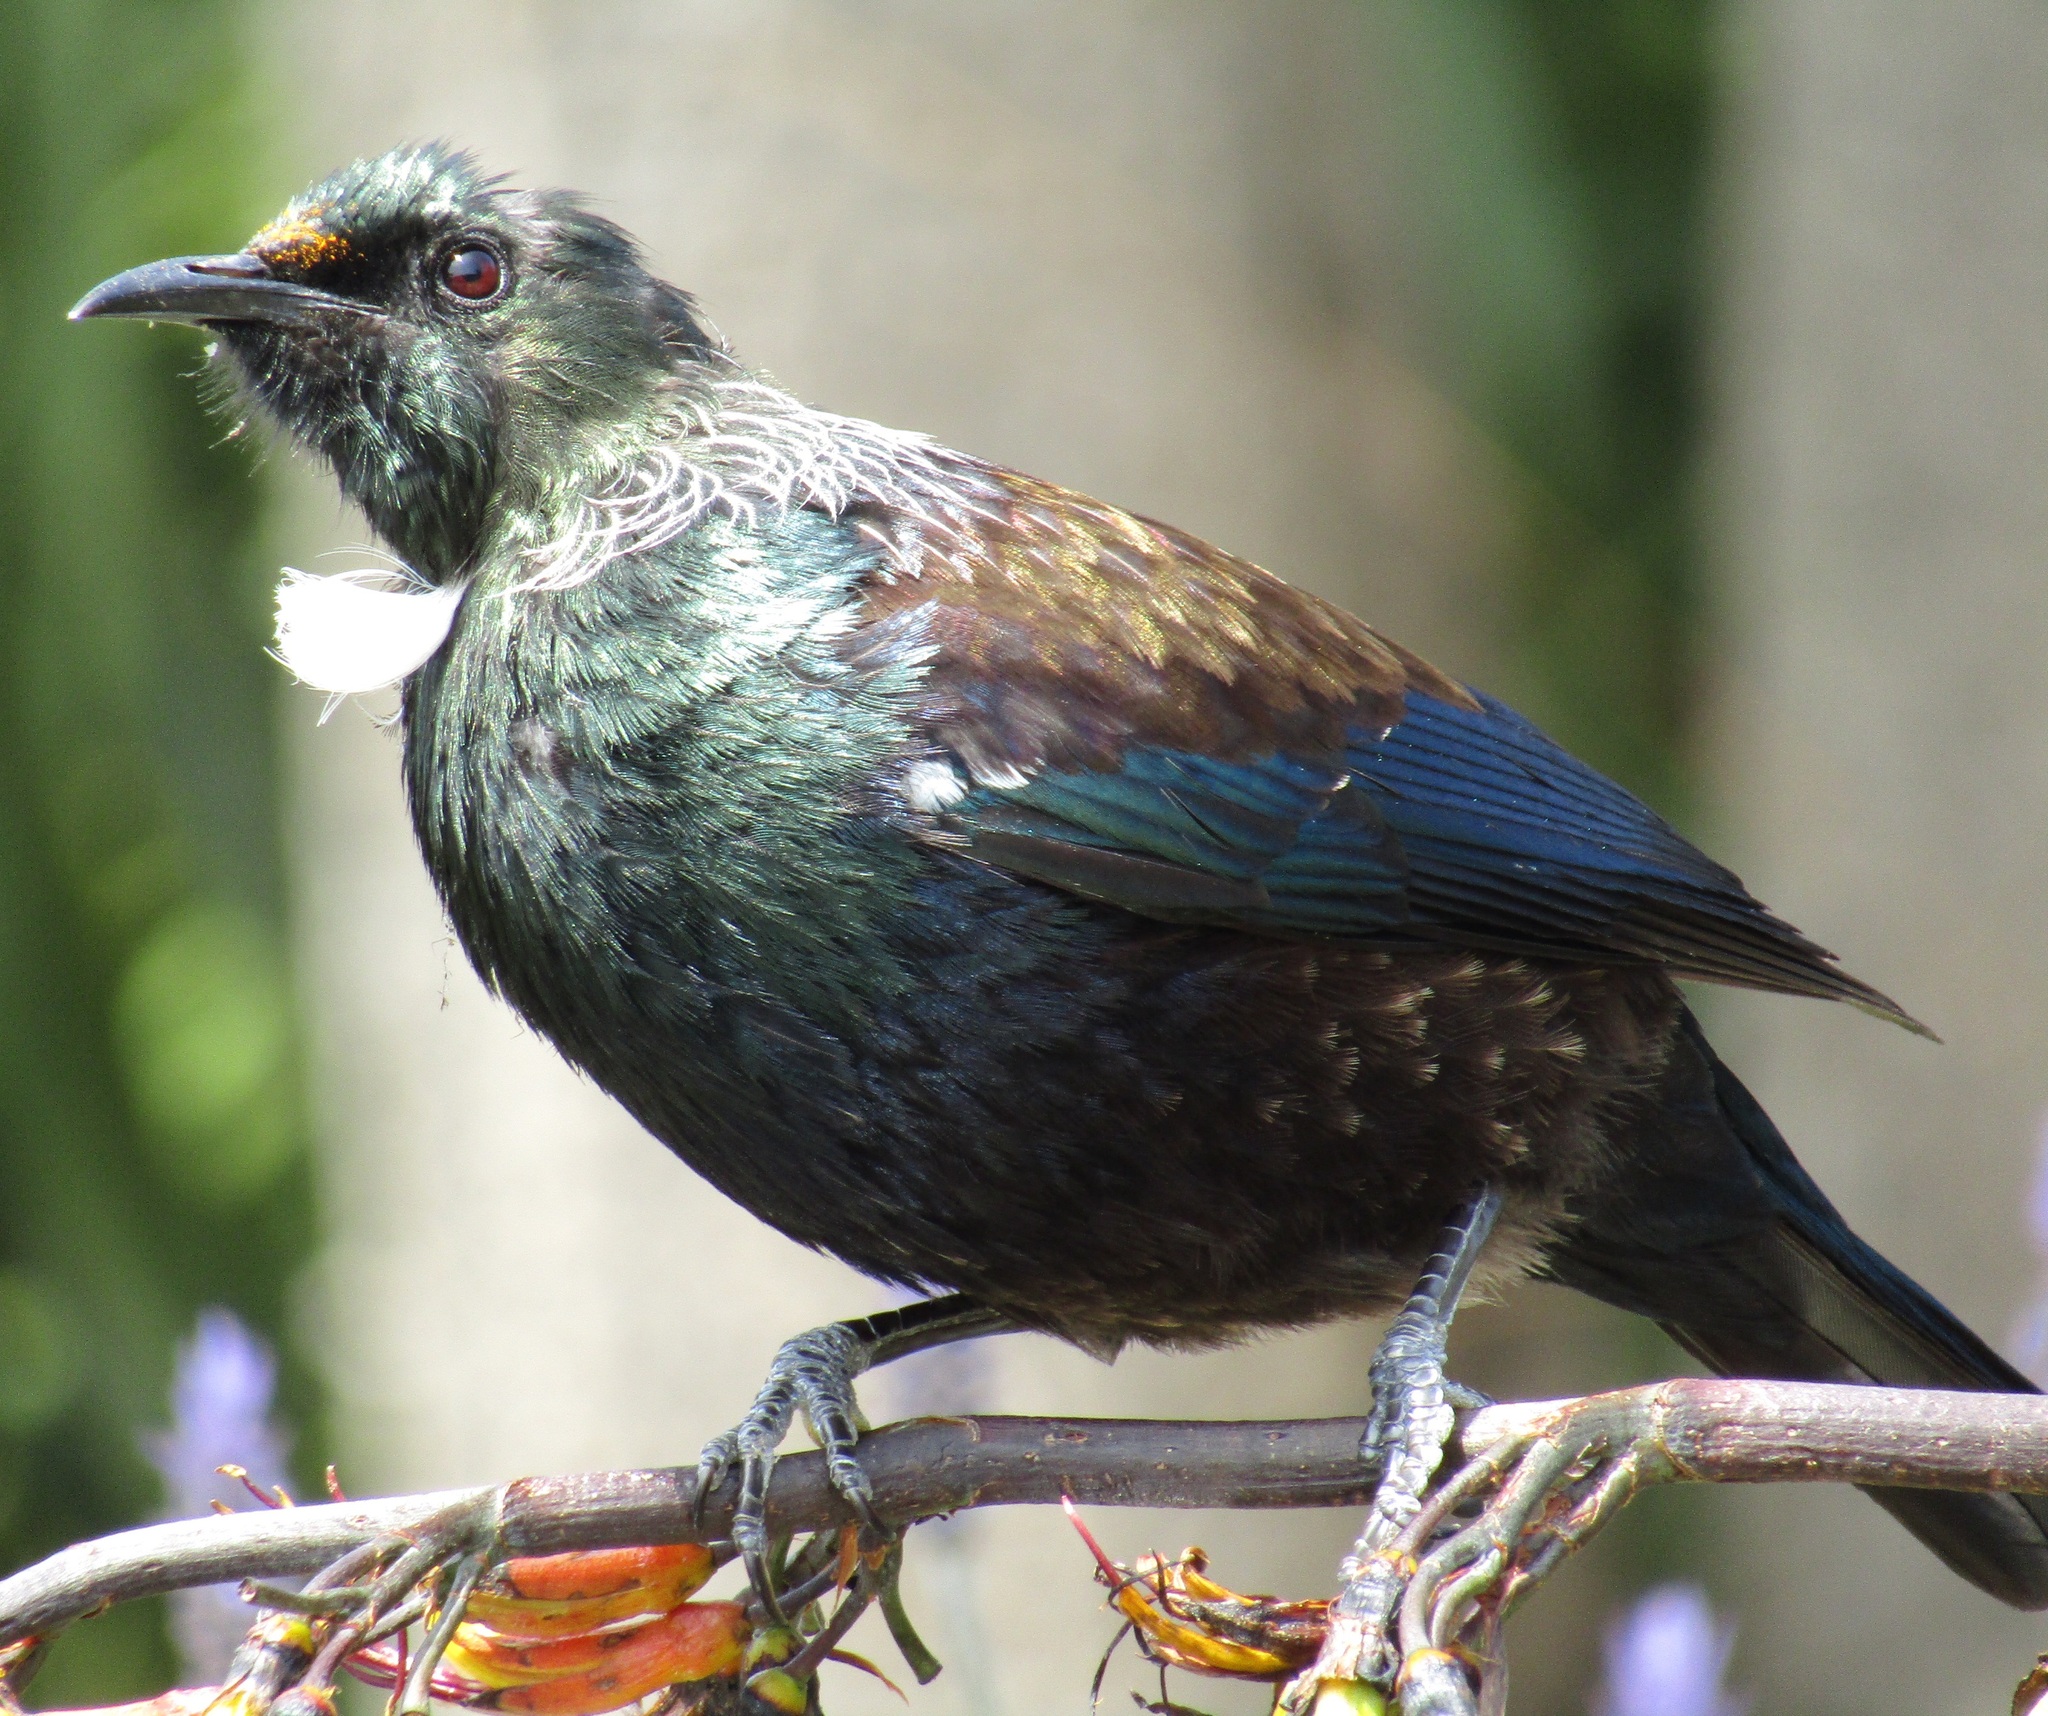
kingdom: Animalia
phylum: Chordata
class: Aves
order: Passeriformes
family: Meliphagidae
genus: Prosthemadera
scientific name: Prosthemadera novaeseelandiae
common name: Tui
